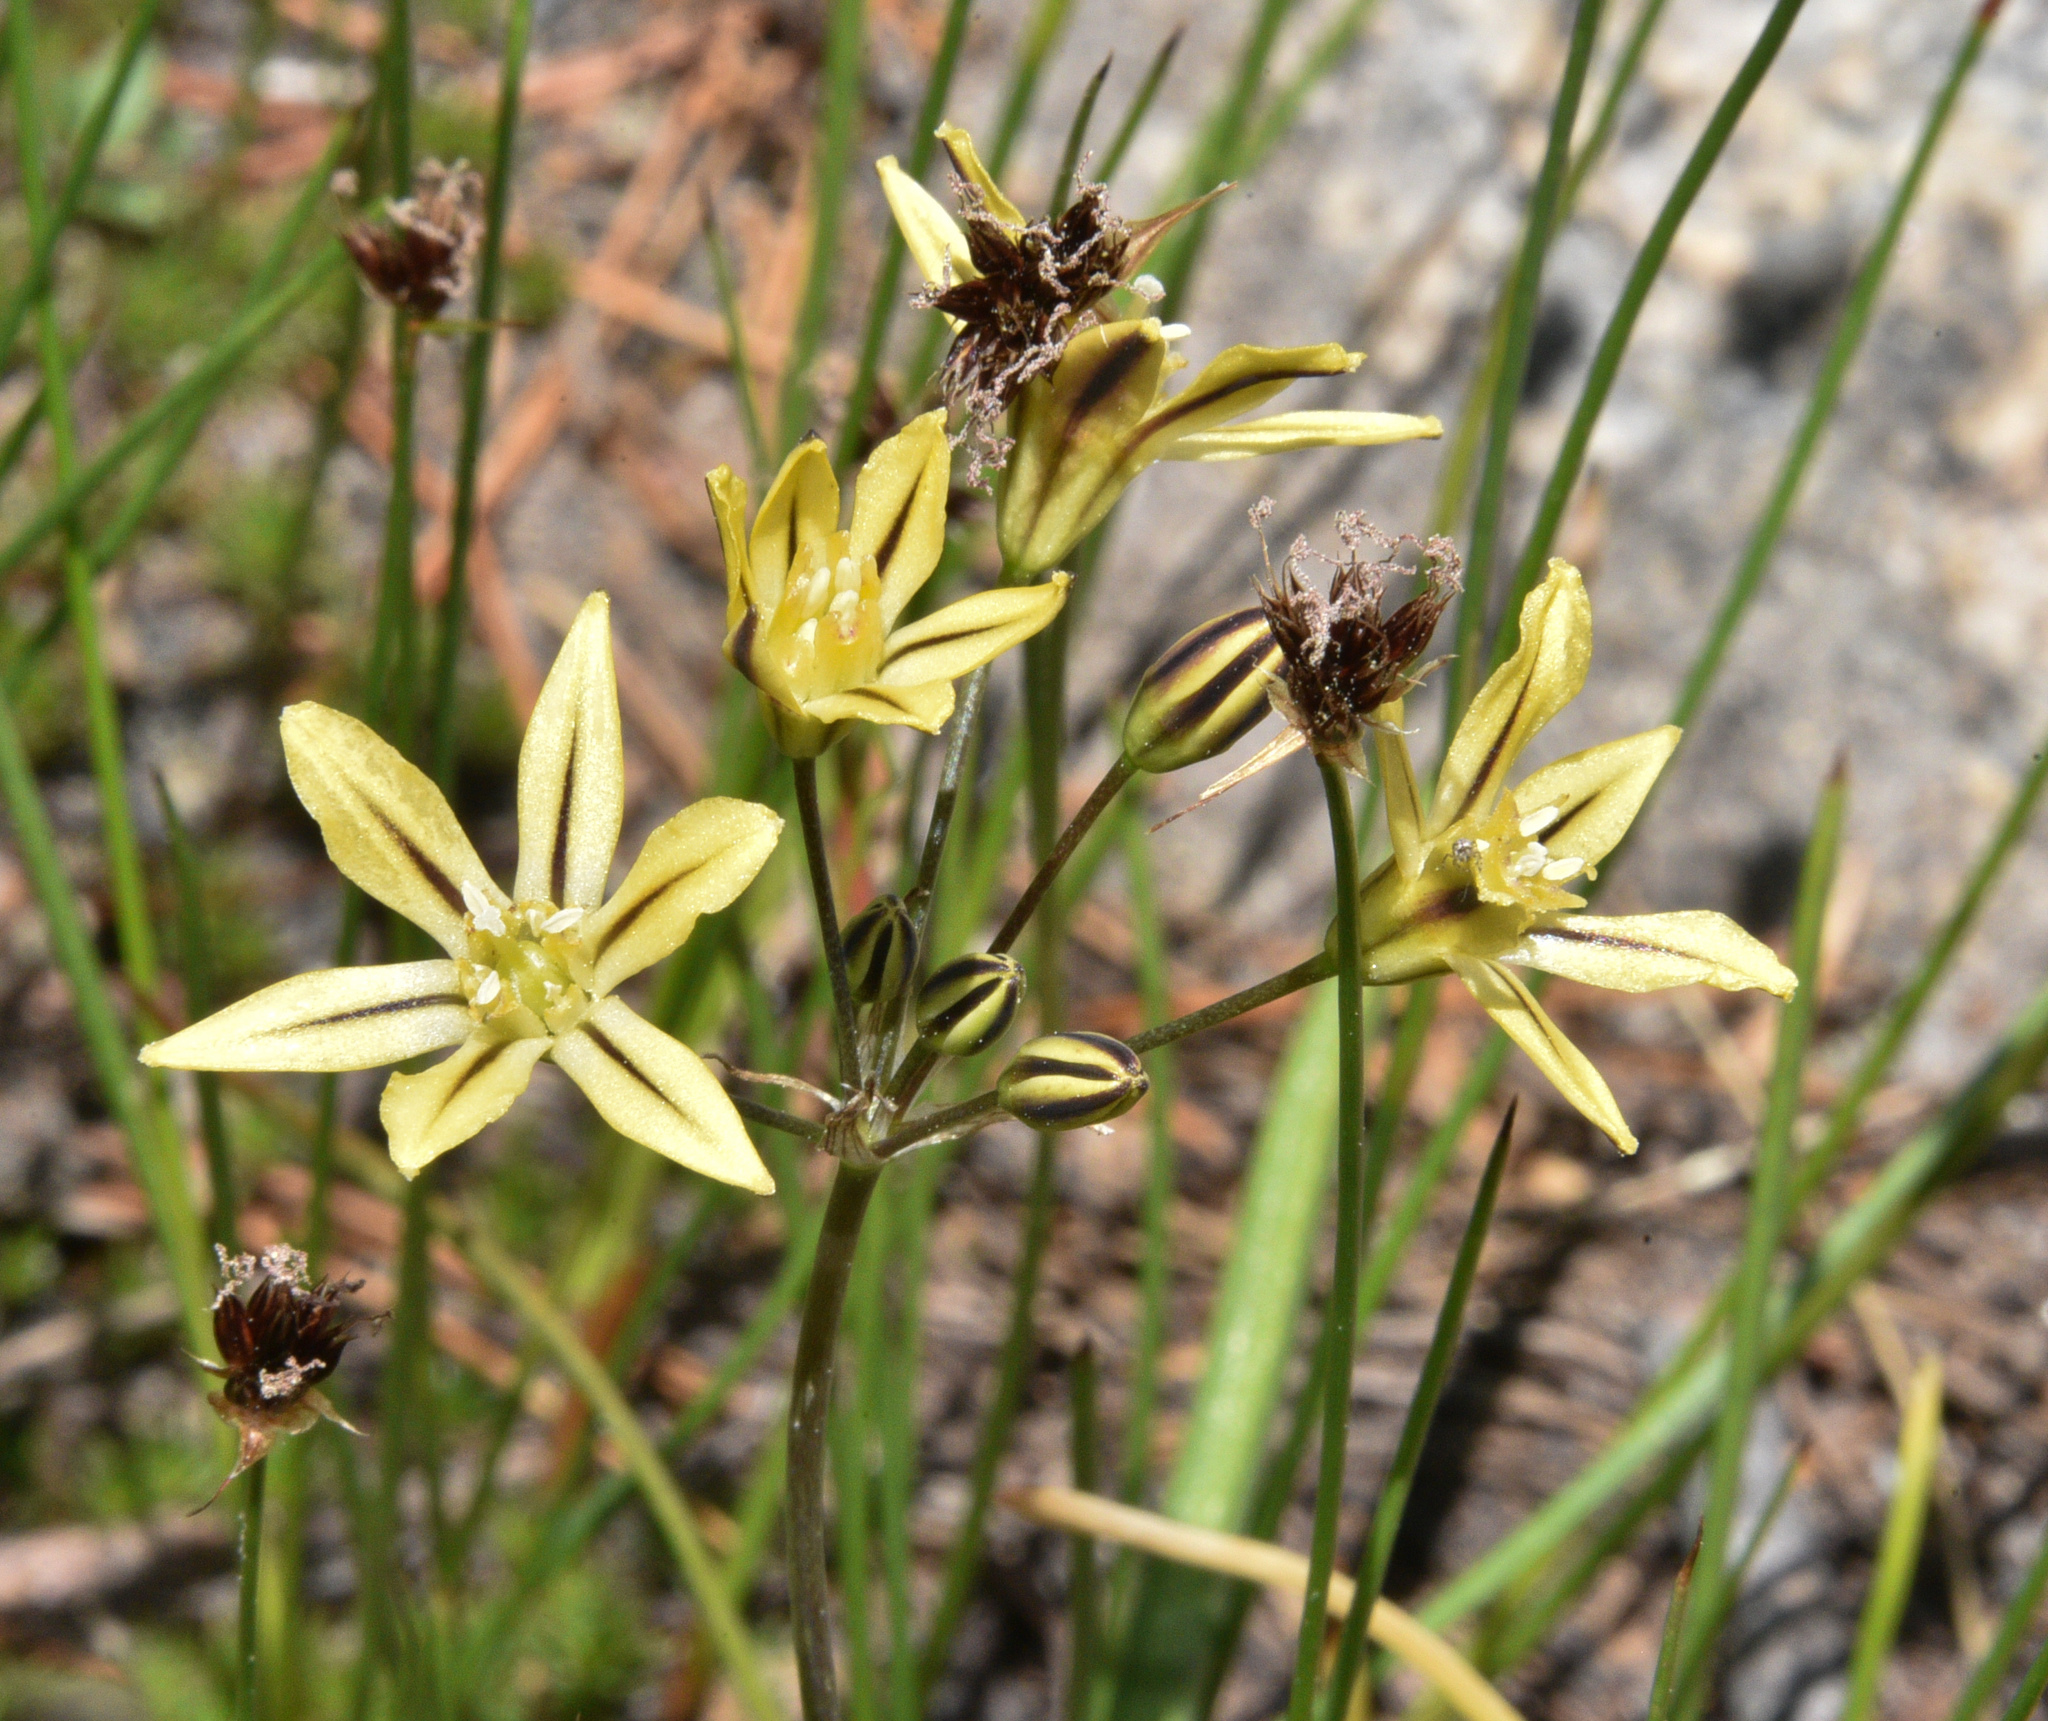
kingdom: Plantae
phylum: Tracheophyta
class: Liliopsida
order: Asparagales
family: Asparagaceae
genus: Triteleia
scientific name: Triteleia ixioides
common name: Yellow-brodiaea
